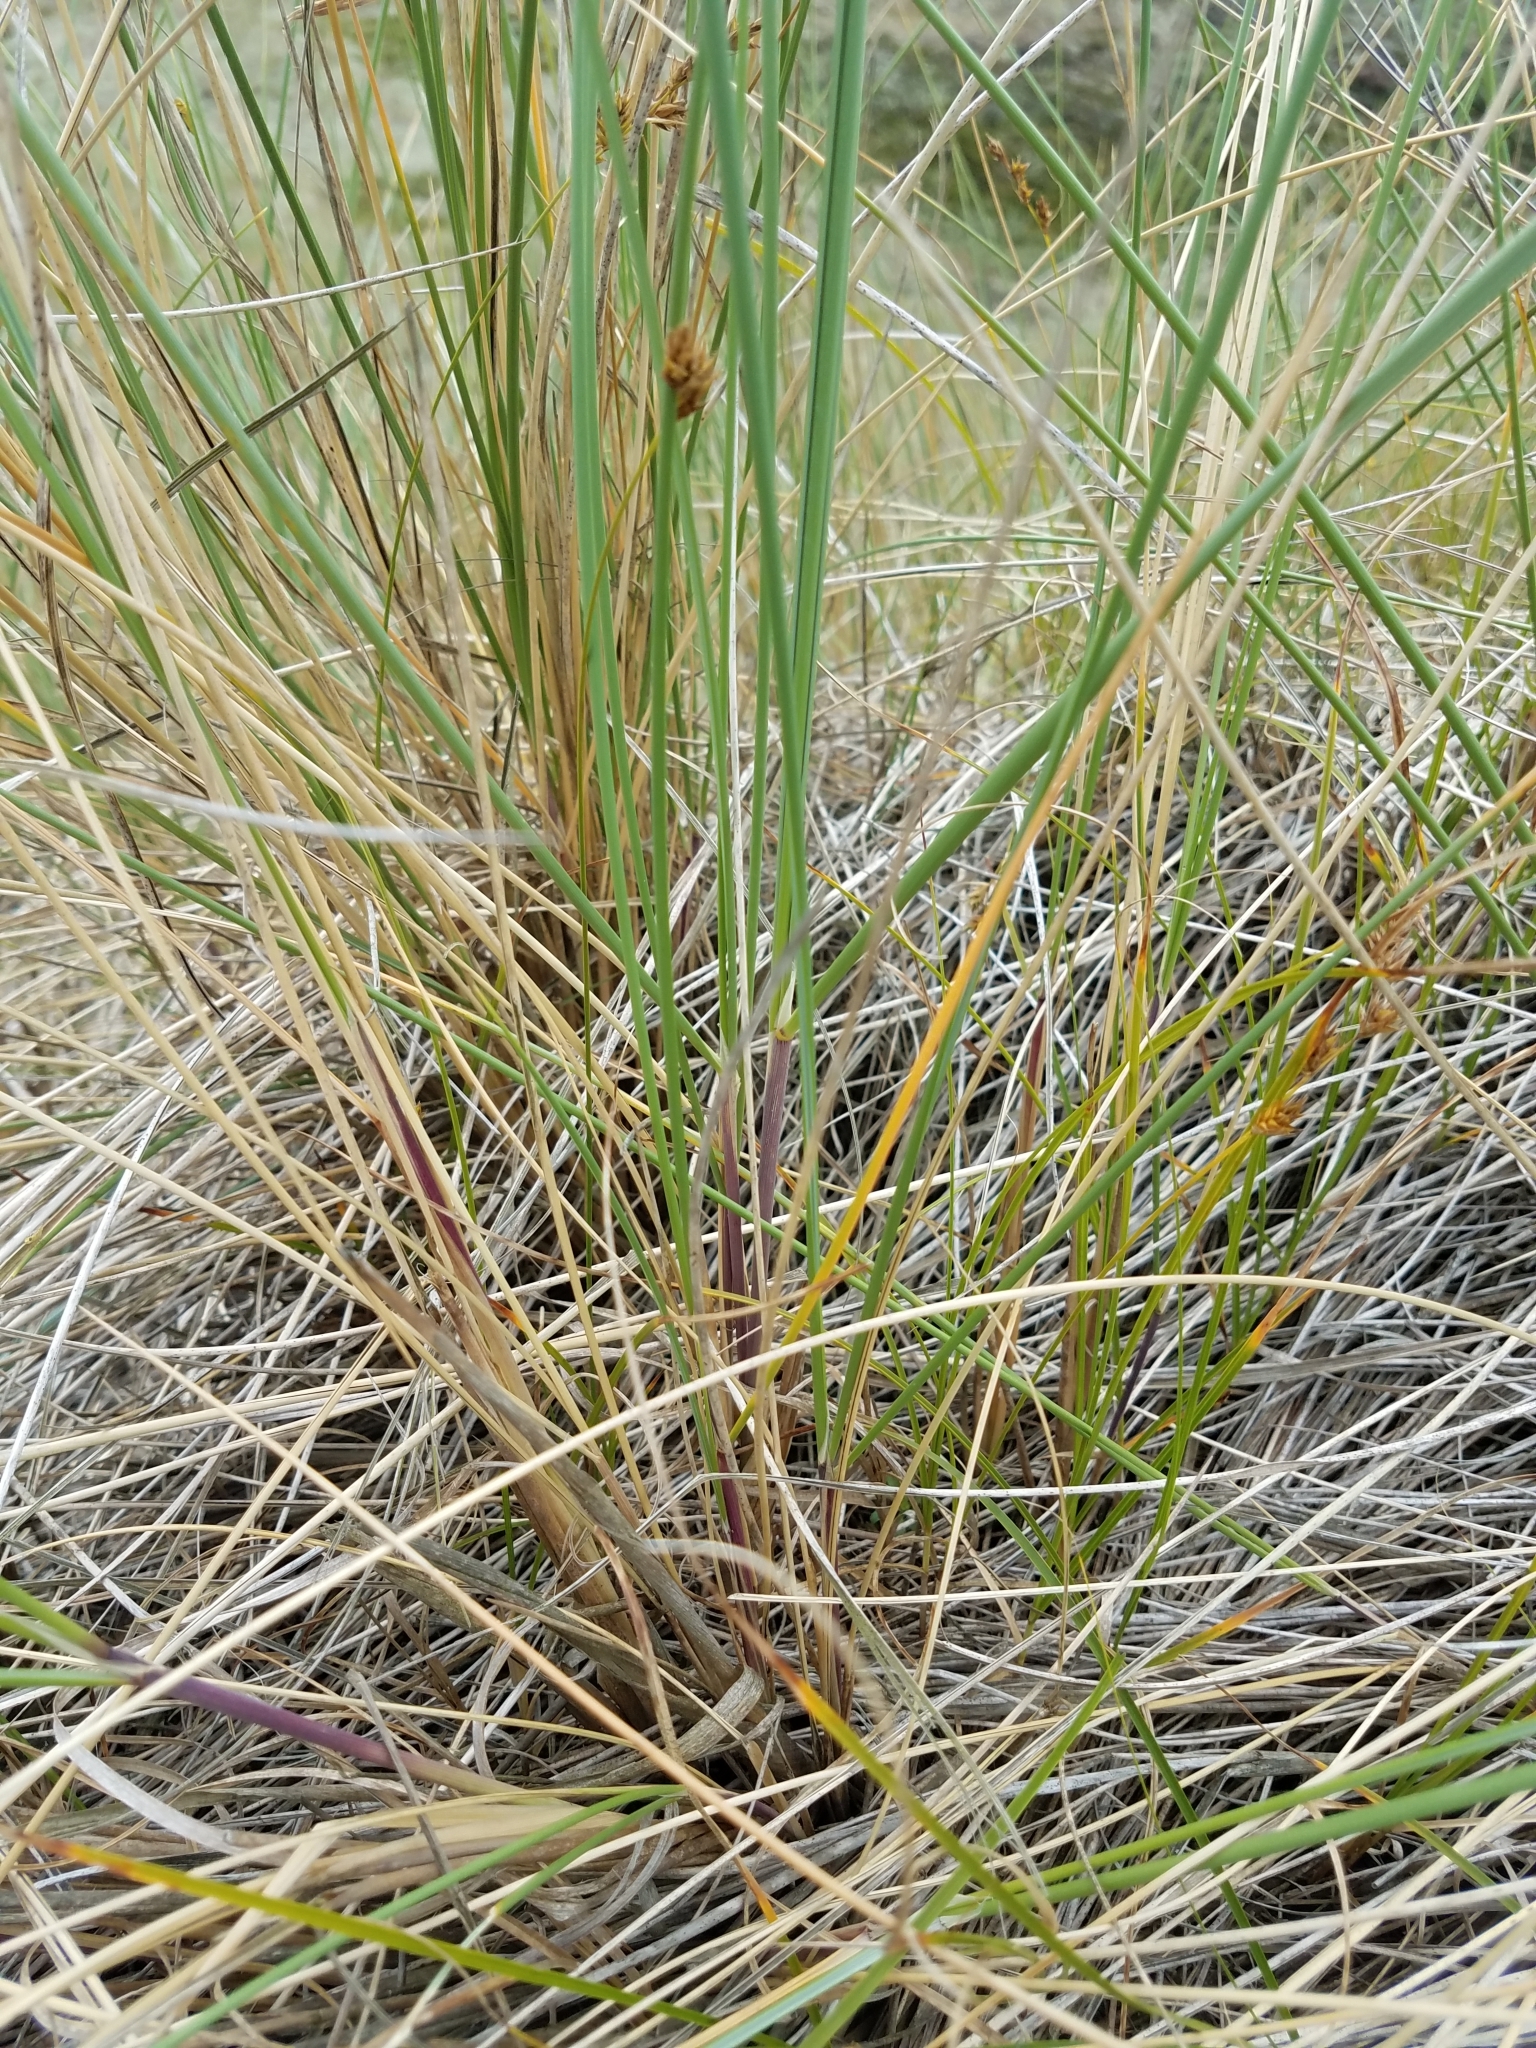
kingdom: Plantae
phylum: Tracheophyta
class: Liliopsida
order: Poales
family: Poaceae
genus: Calamagrostis
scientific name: Calamagrostis arenaria
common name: European beachgrass
